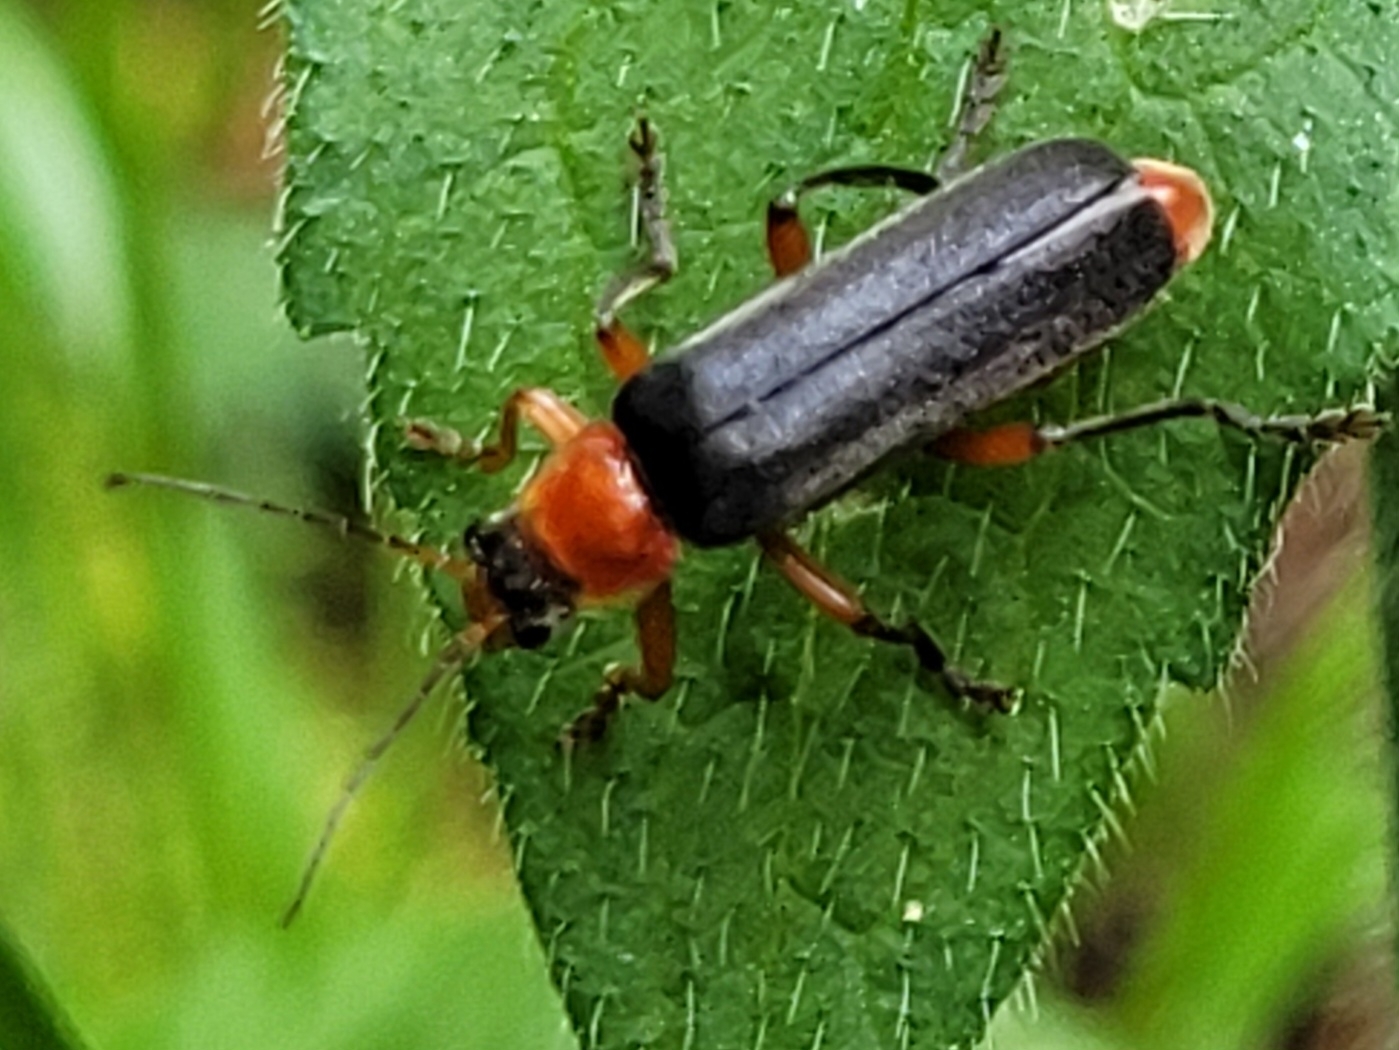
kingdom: Animalia
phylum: Arthropoda
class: Insecta
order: Coleoptera
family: Cantharidae
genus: Cantharis
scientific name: Cantharis pellucida
